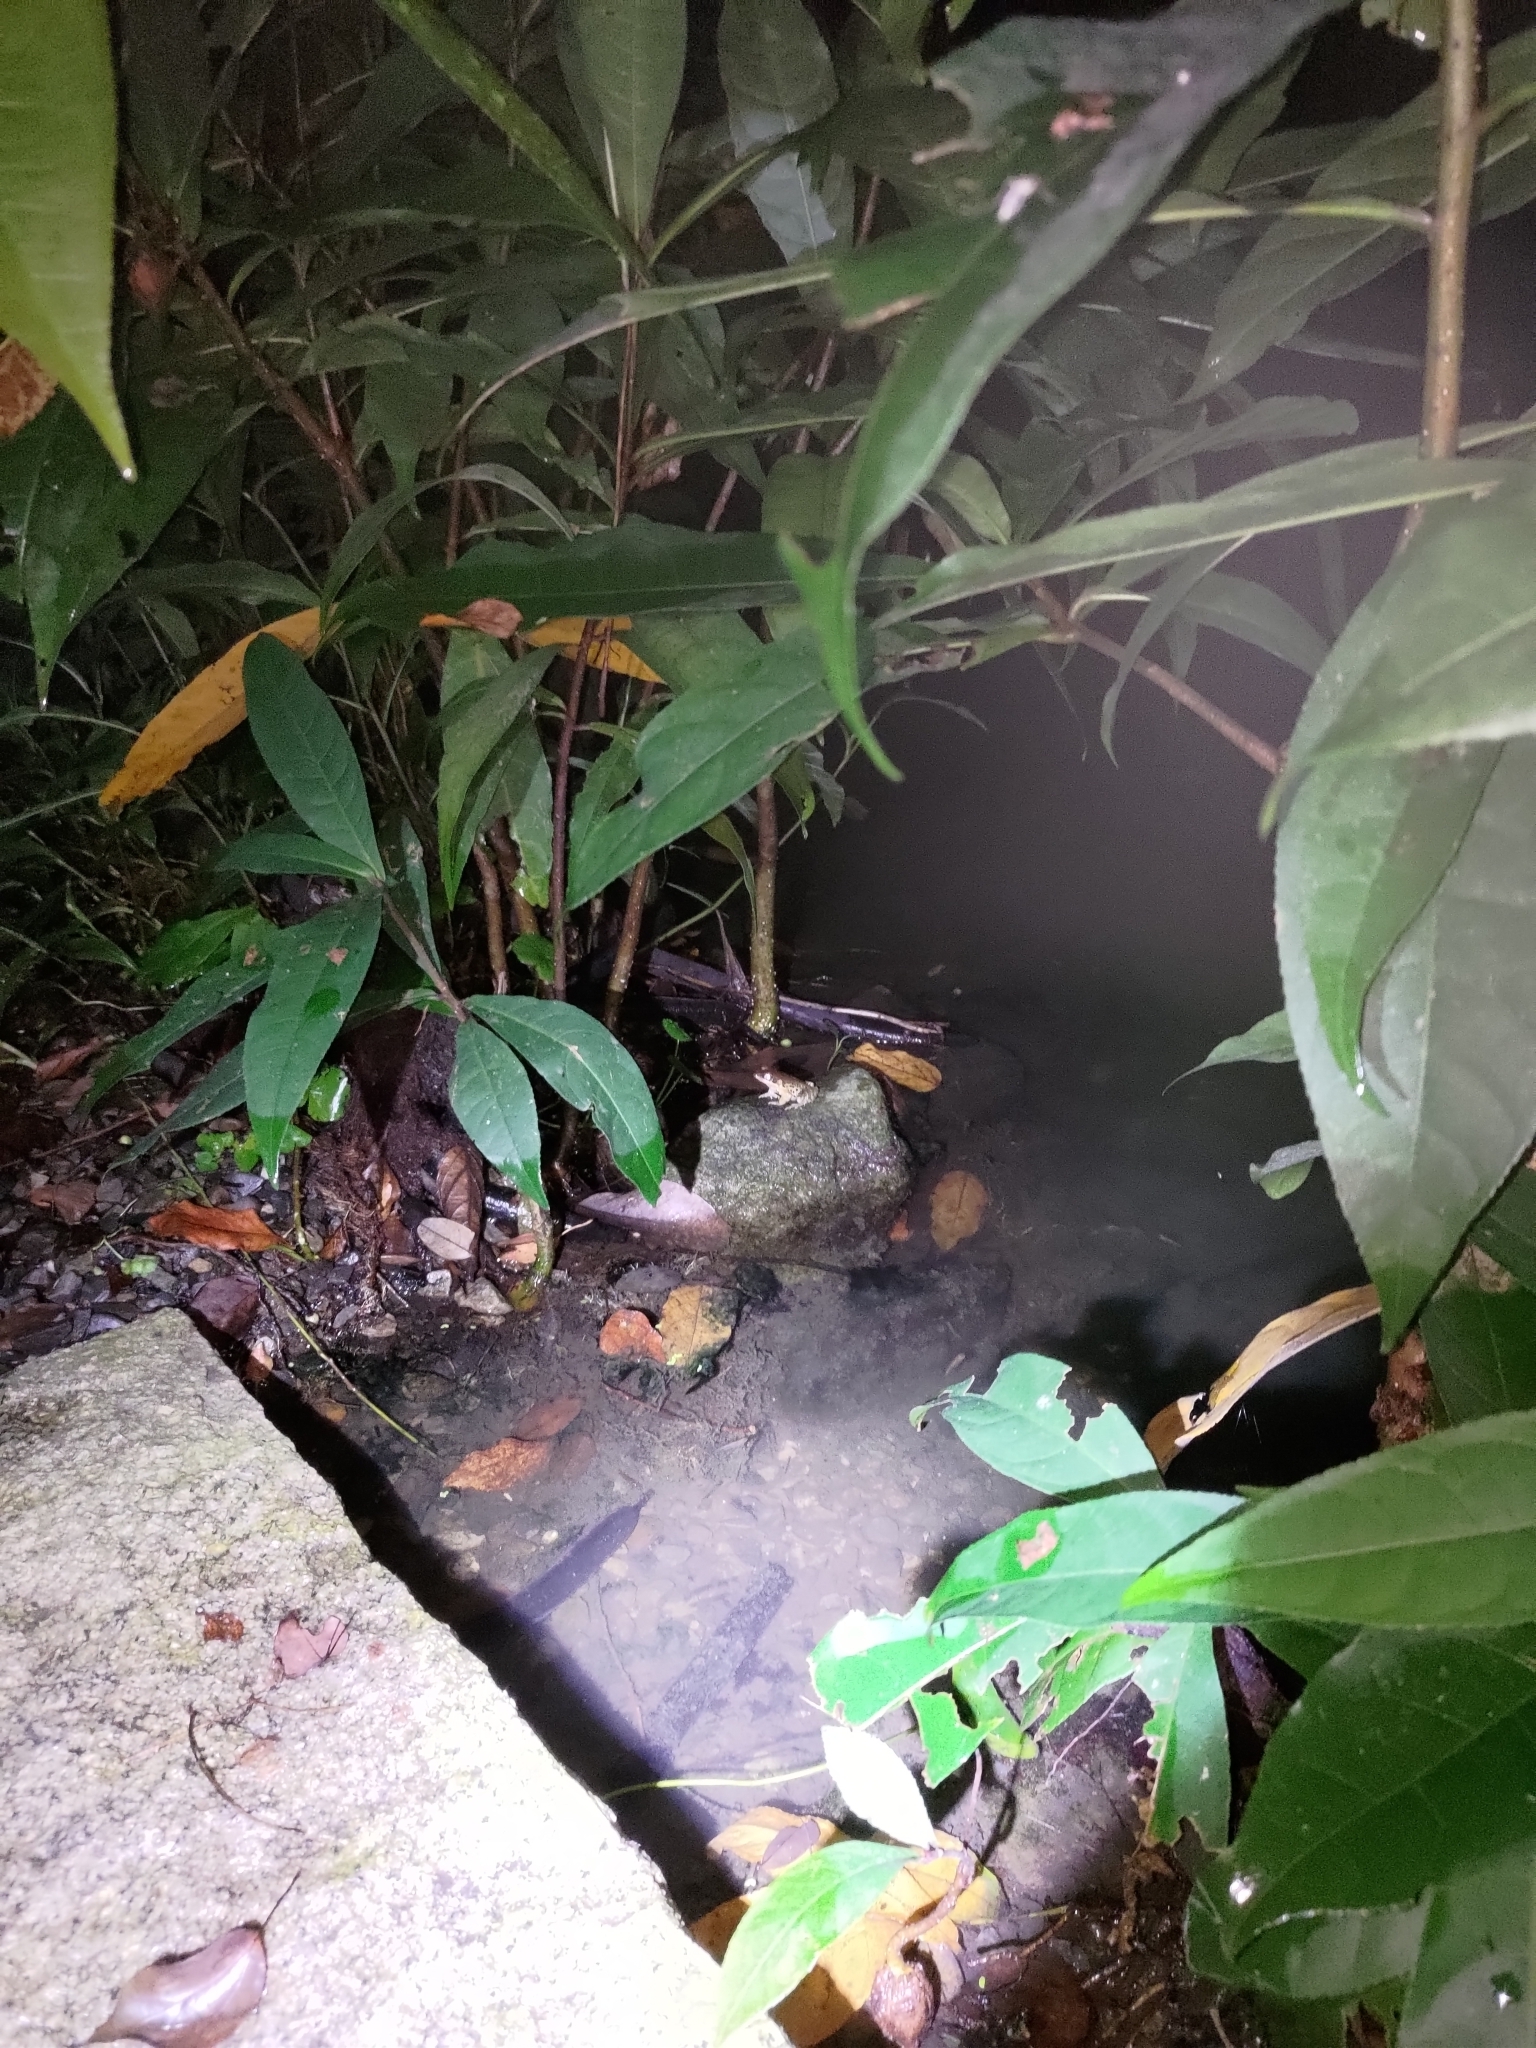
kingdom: Animalia
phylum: Chordata
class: Amphibia
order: Anura
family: Ranidae
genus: Hylarana
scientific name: Hylarana latouchii
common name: Broad-folded frog
